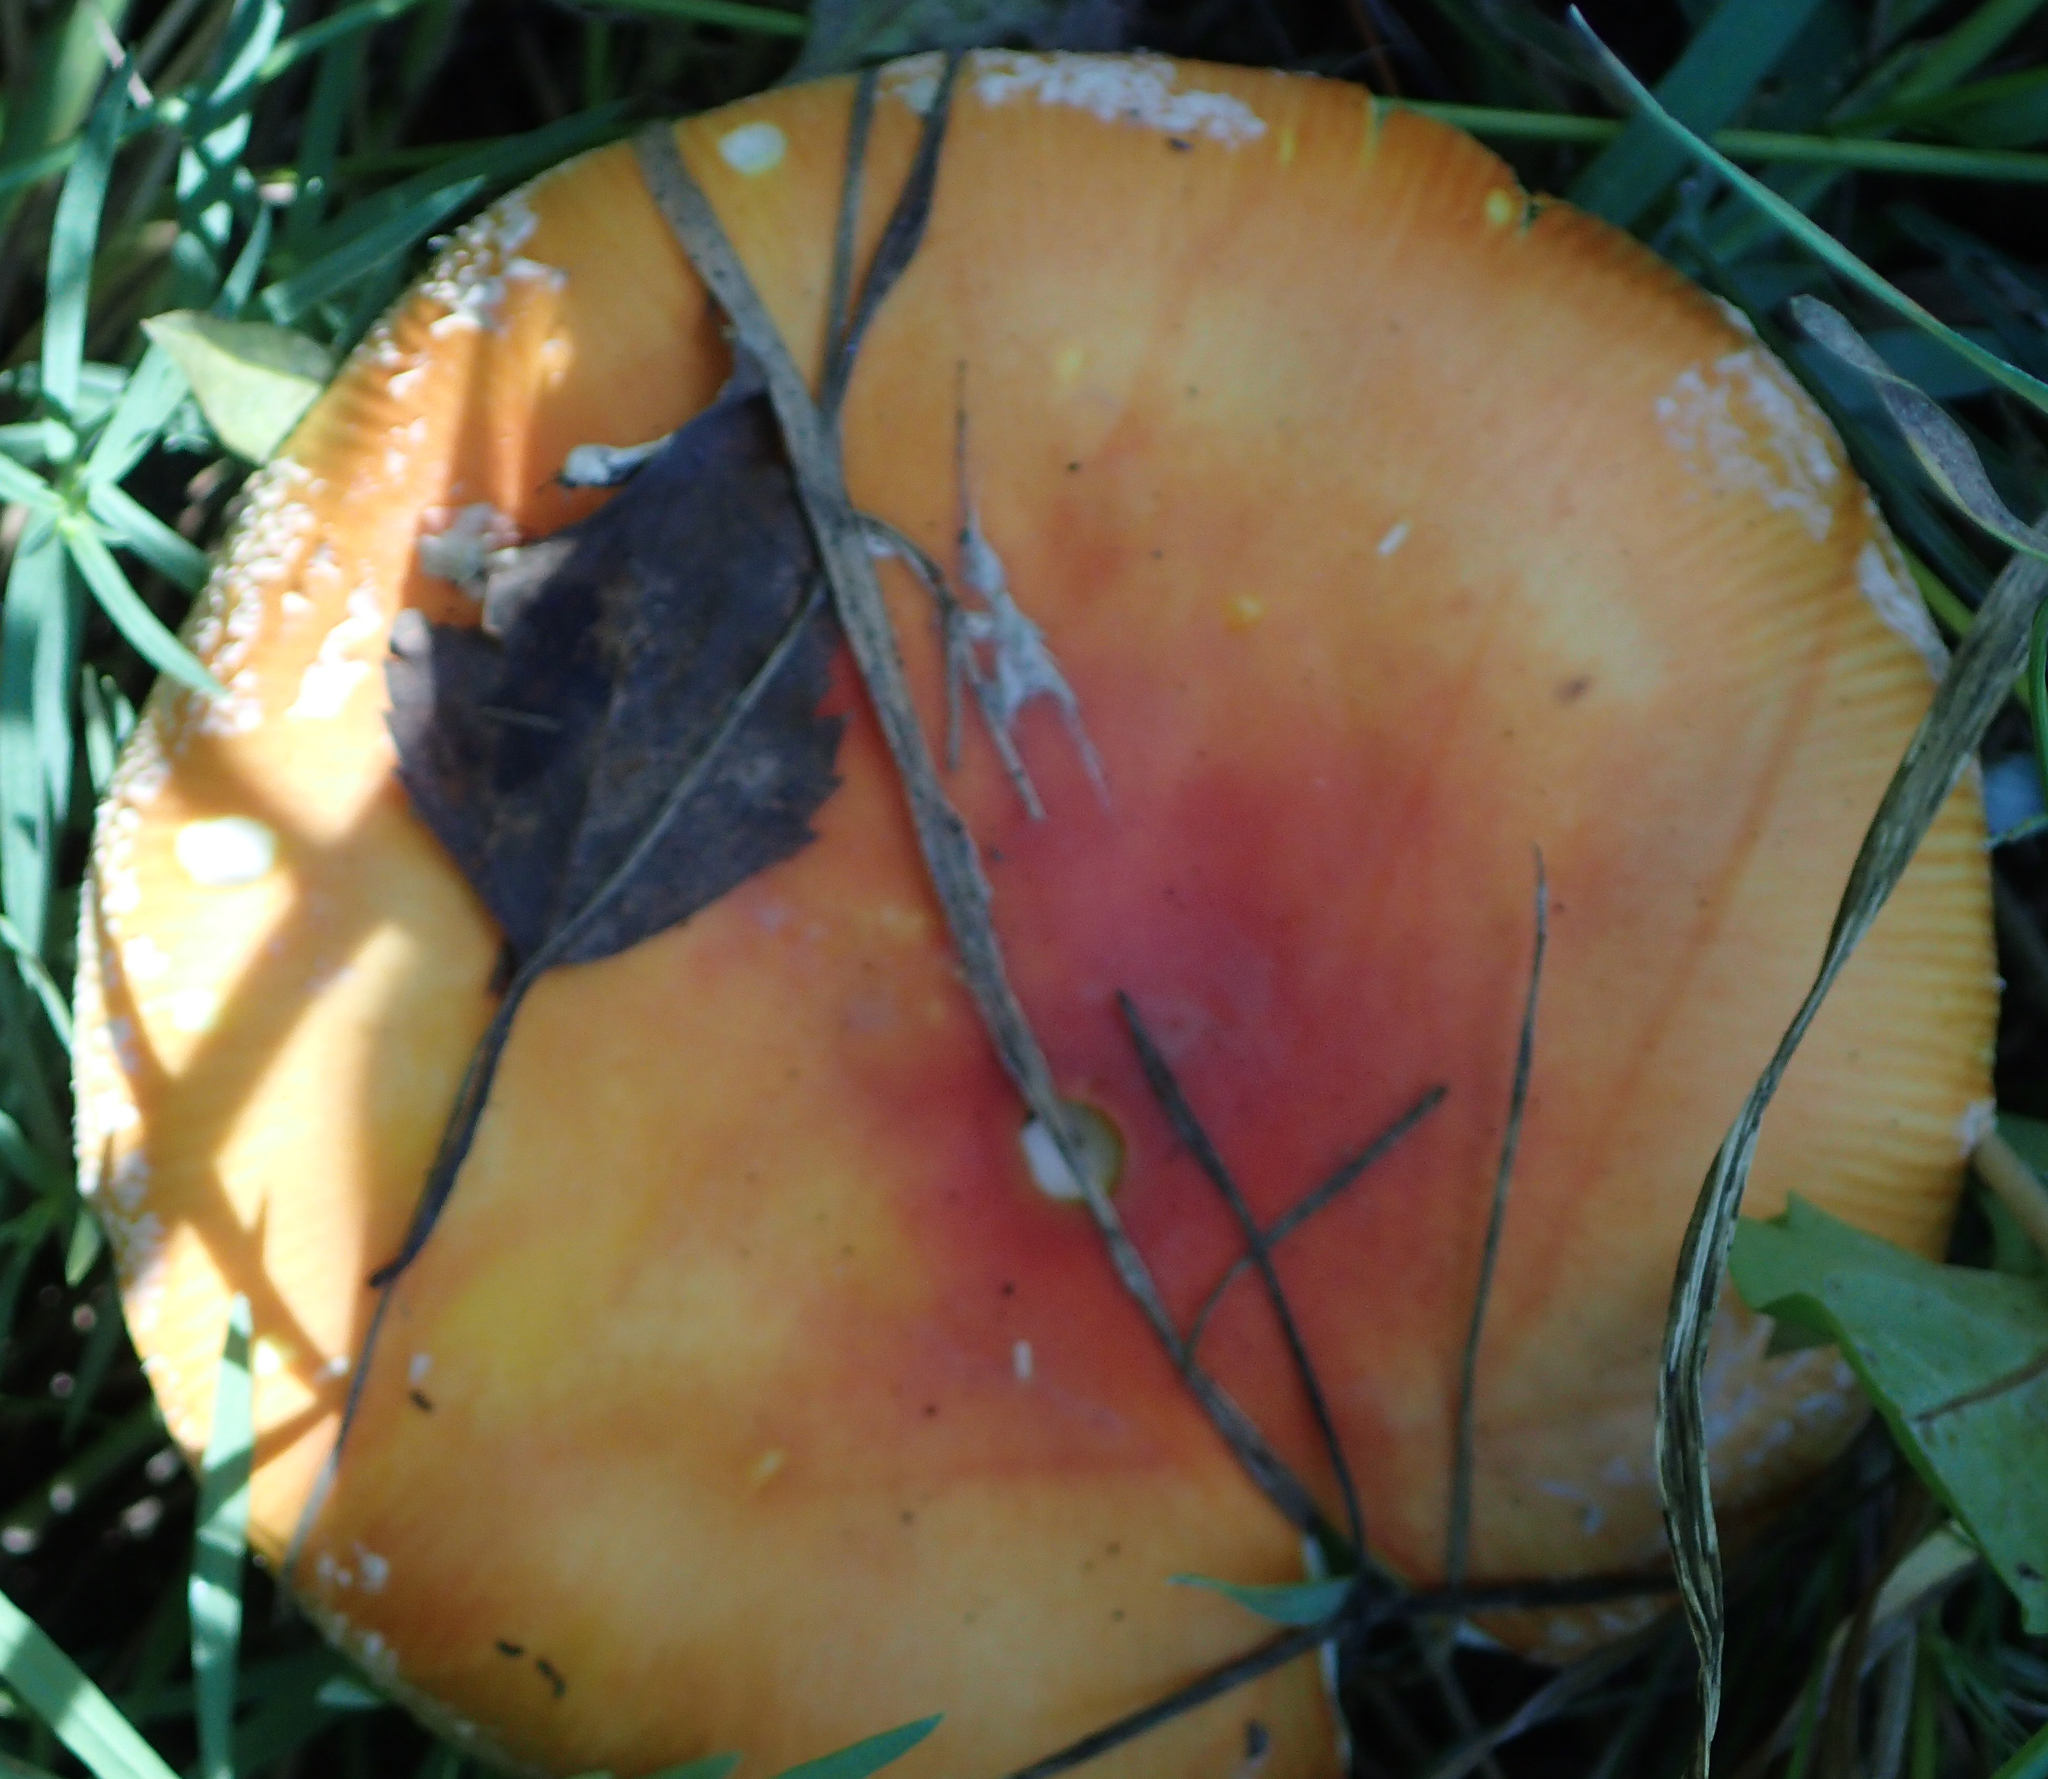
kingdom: Fungi
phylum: Basidiomycota
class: Agaricomycetes
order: Agaricales
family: Amanitaceae
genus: Amanita
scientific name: Amanita muscaria
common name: Fly agaric
